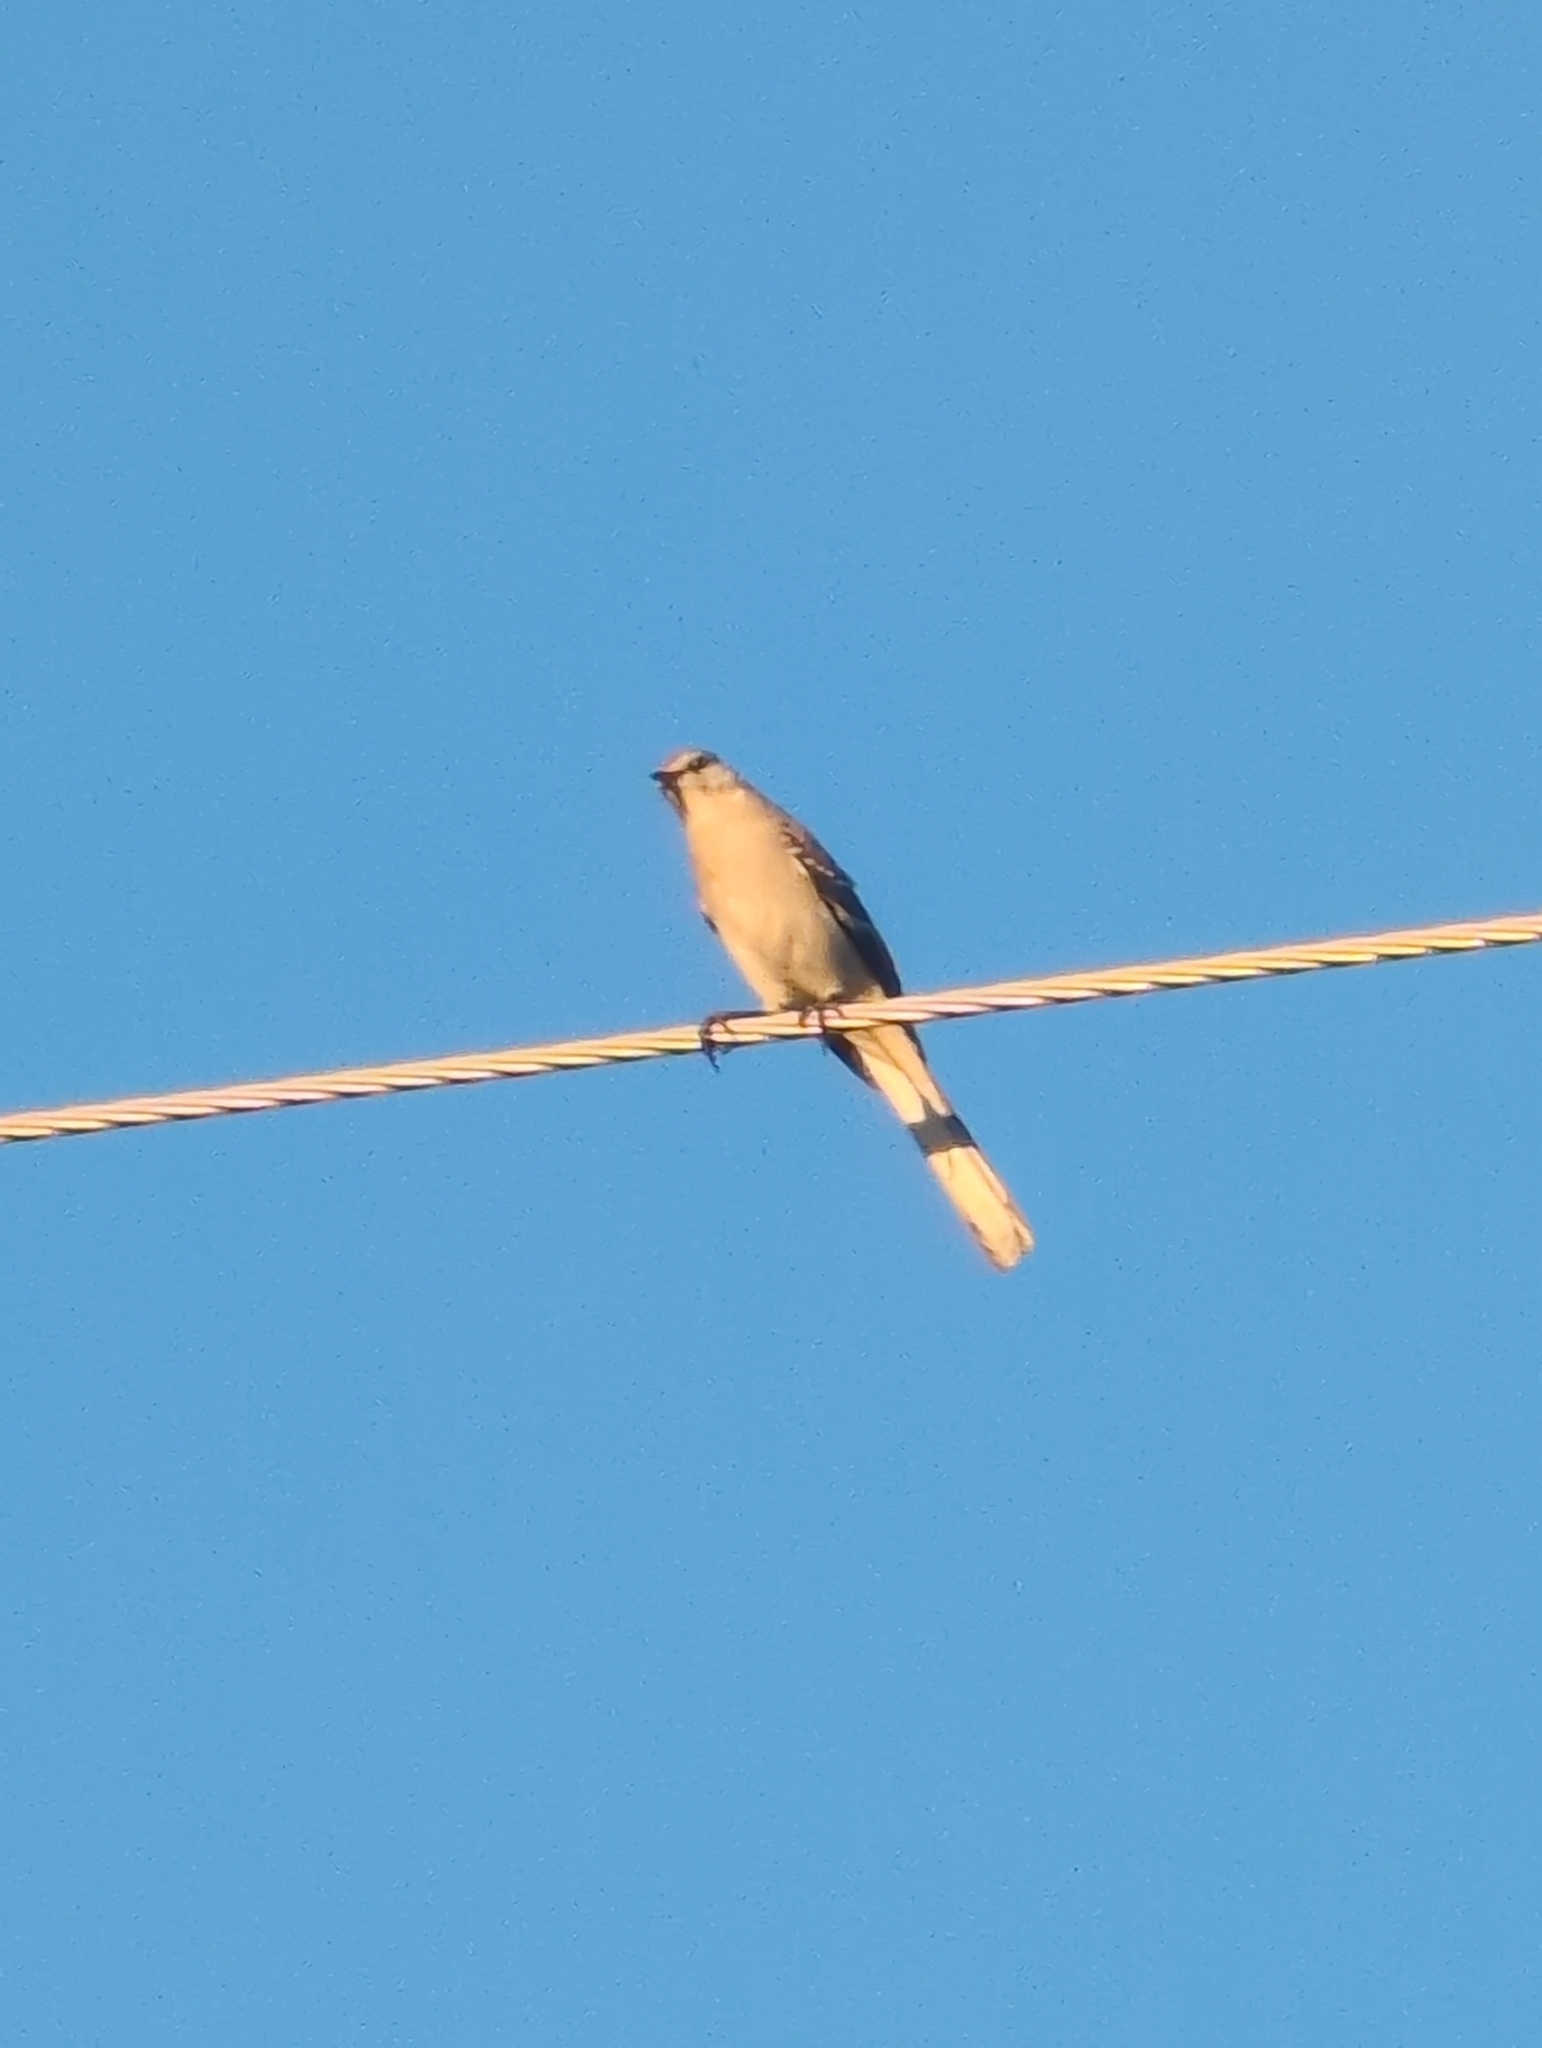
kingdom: Animalia
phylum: Chordata
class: Aves
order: Passeriformes
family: Mimidae
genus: Mimus
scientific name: Mimus polyglottos
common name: Northern mockingbird
